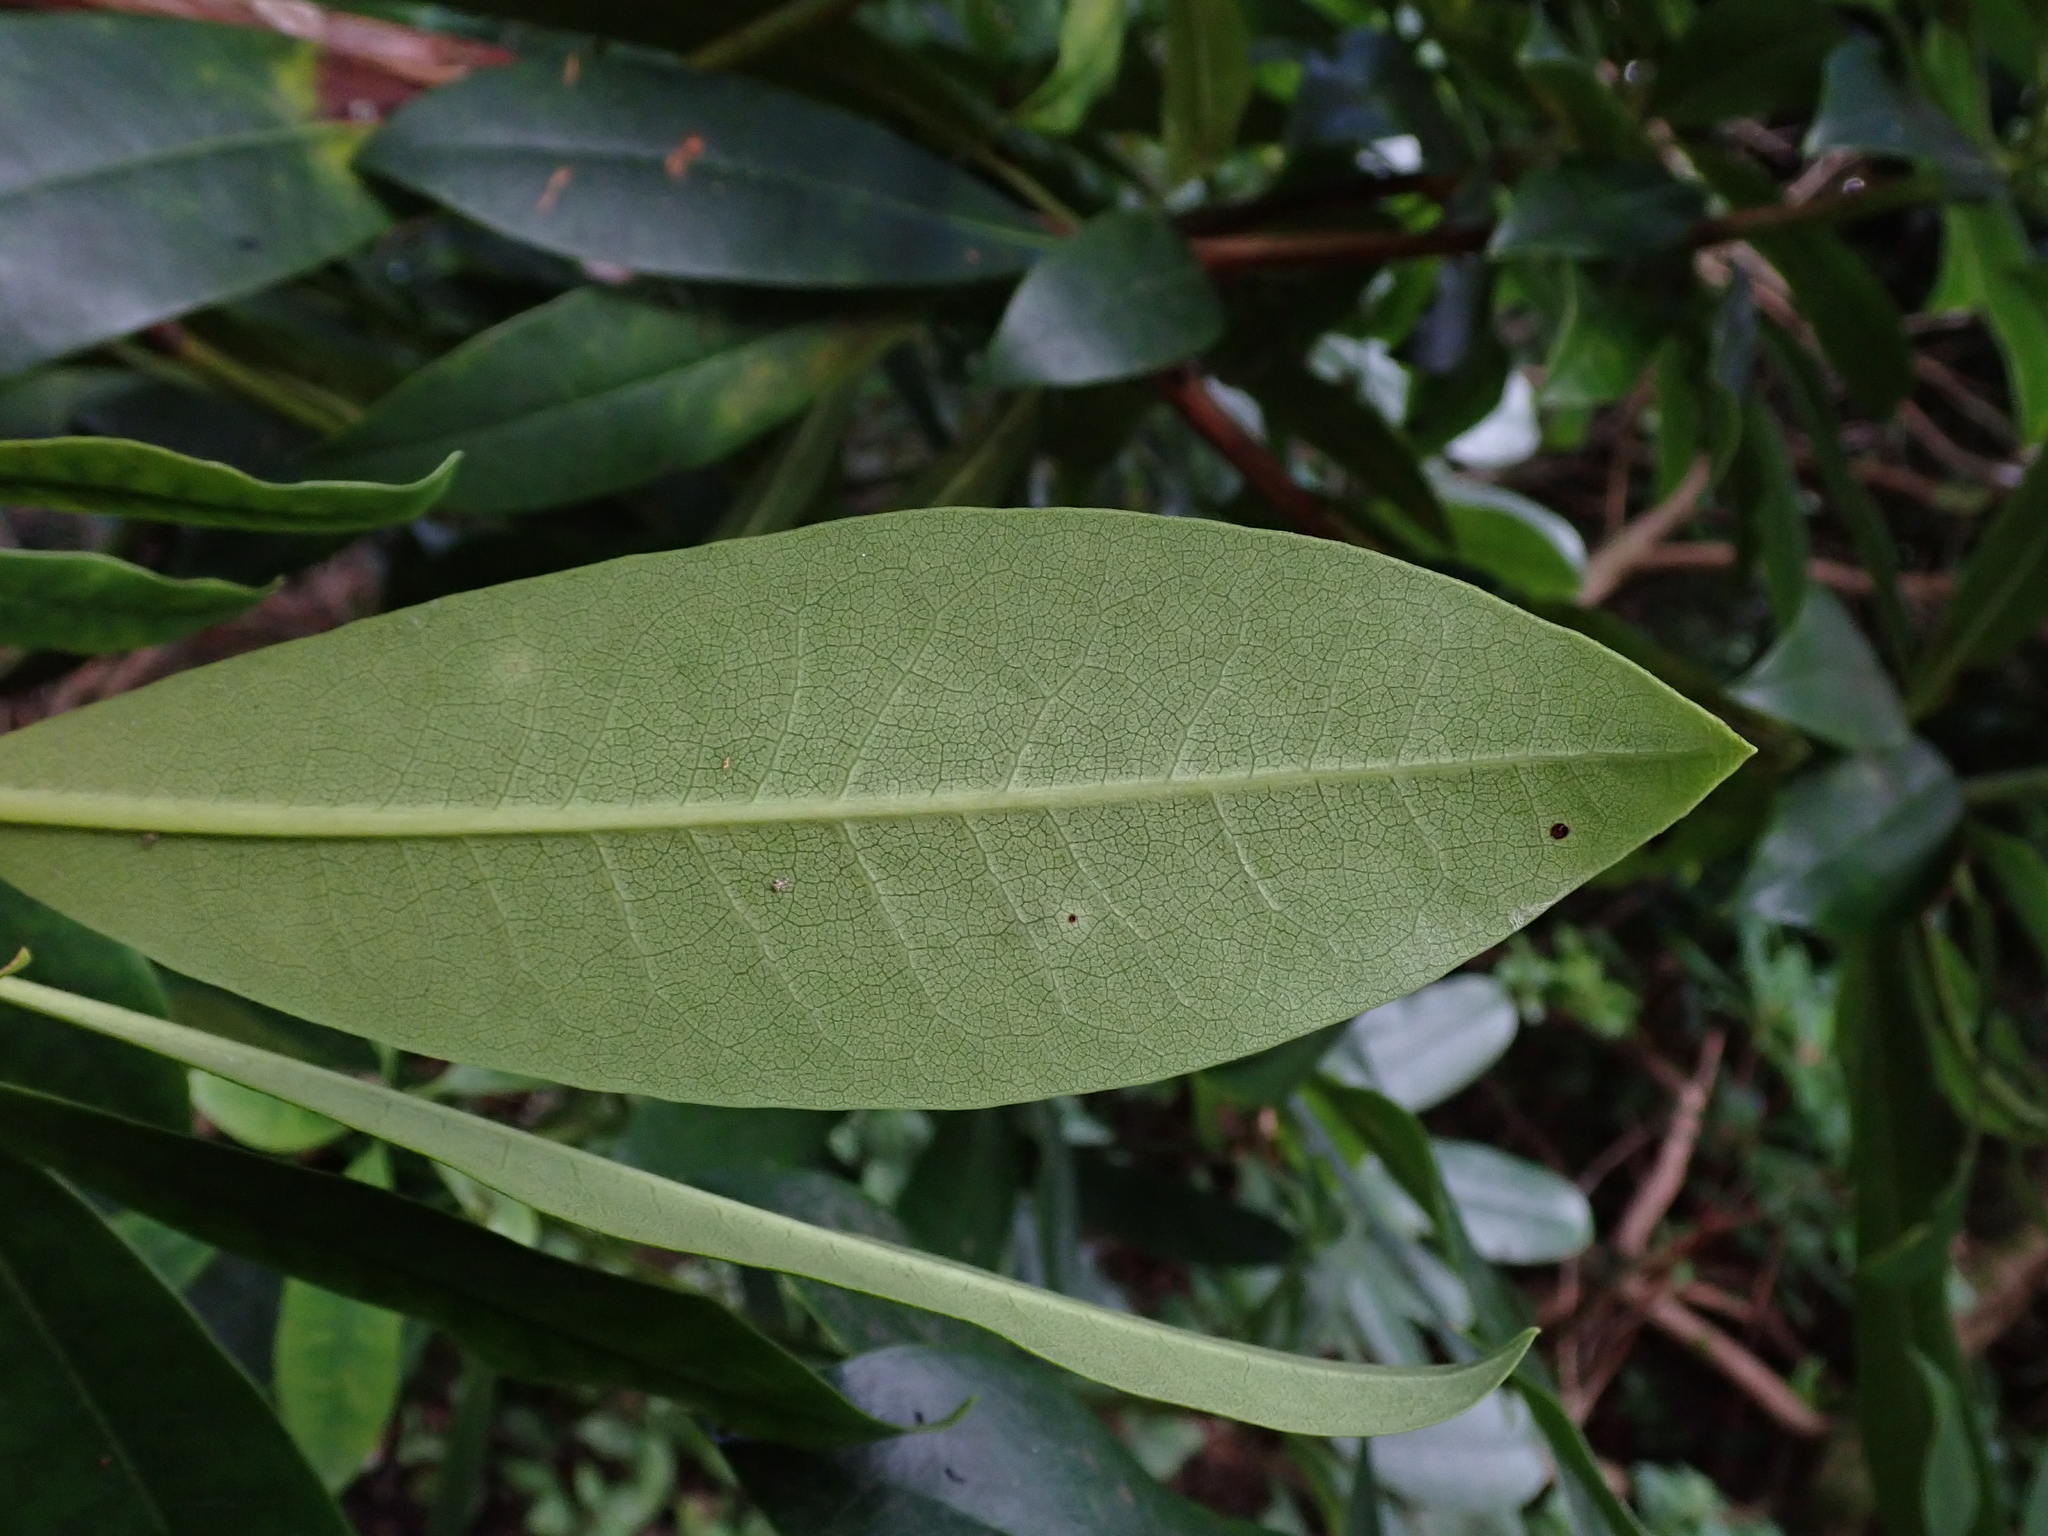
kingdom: Plantae
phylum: Tracheophyta
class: Magnoliopsida
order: Ericales
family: Ericaceae
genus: Rhododendron
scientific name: Rhododendron ponticum
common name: Rhododendron
